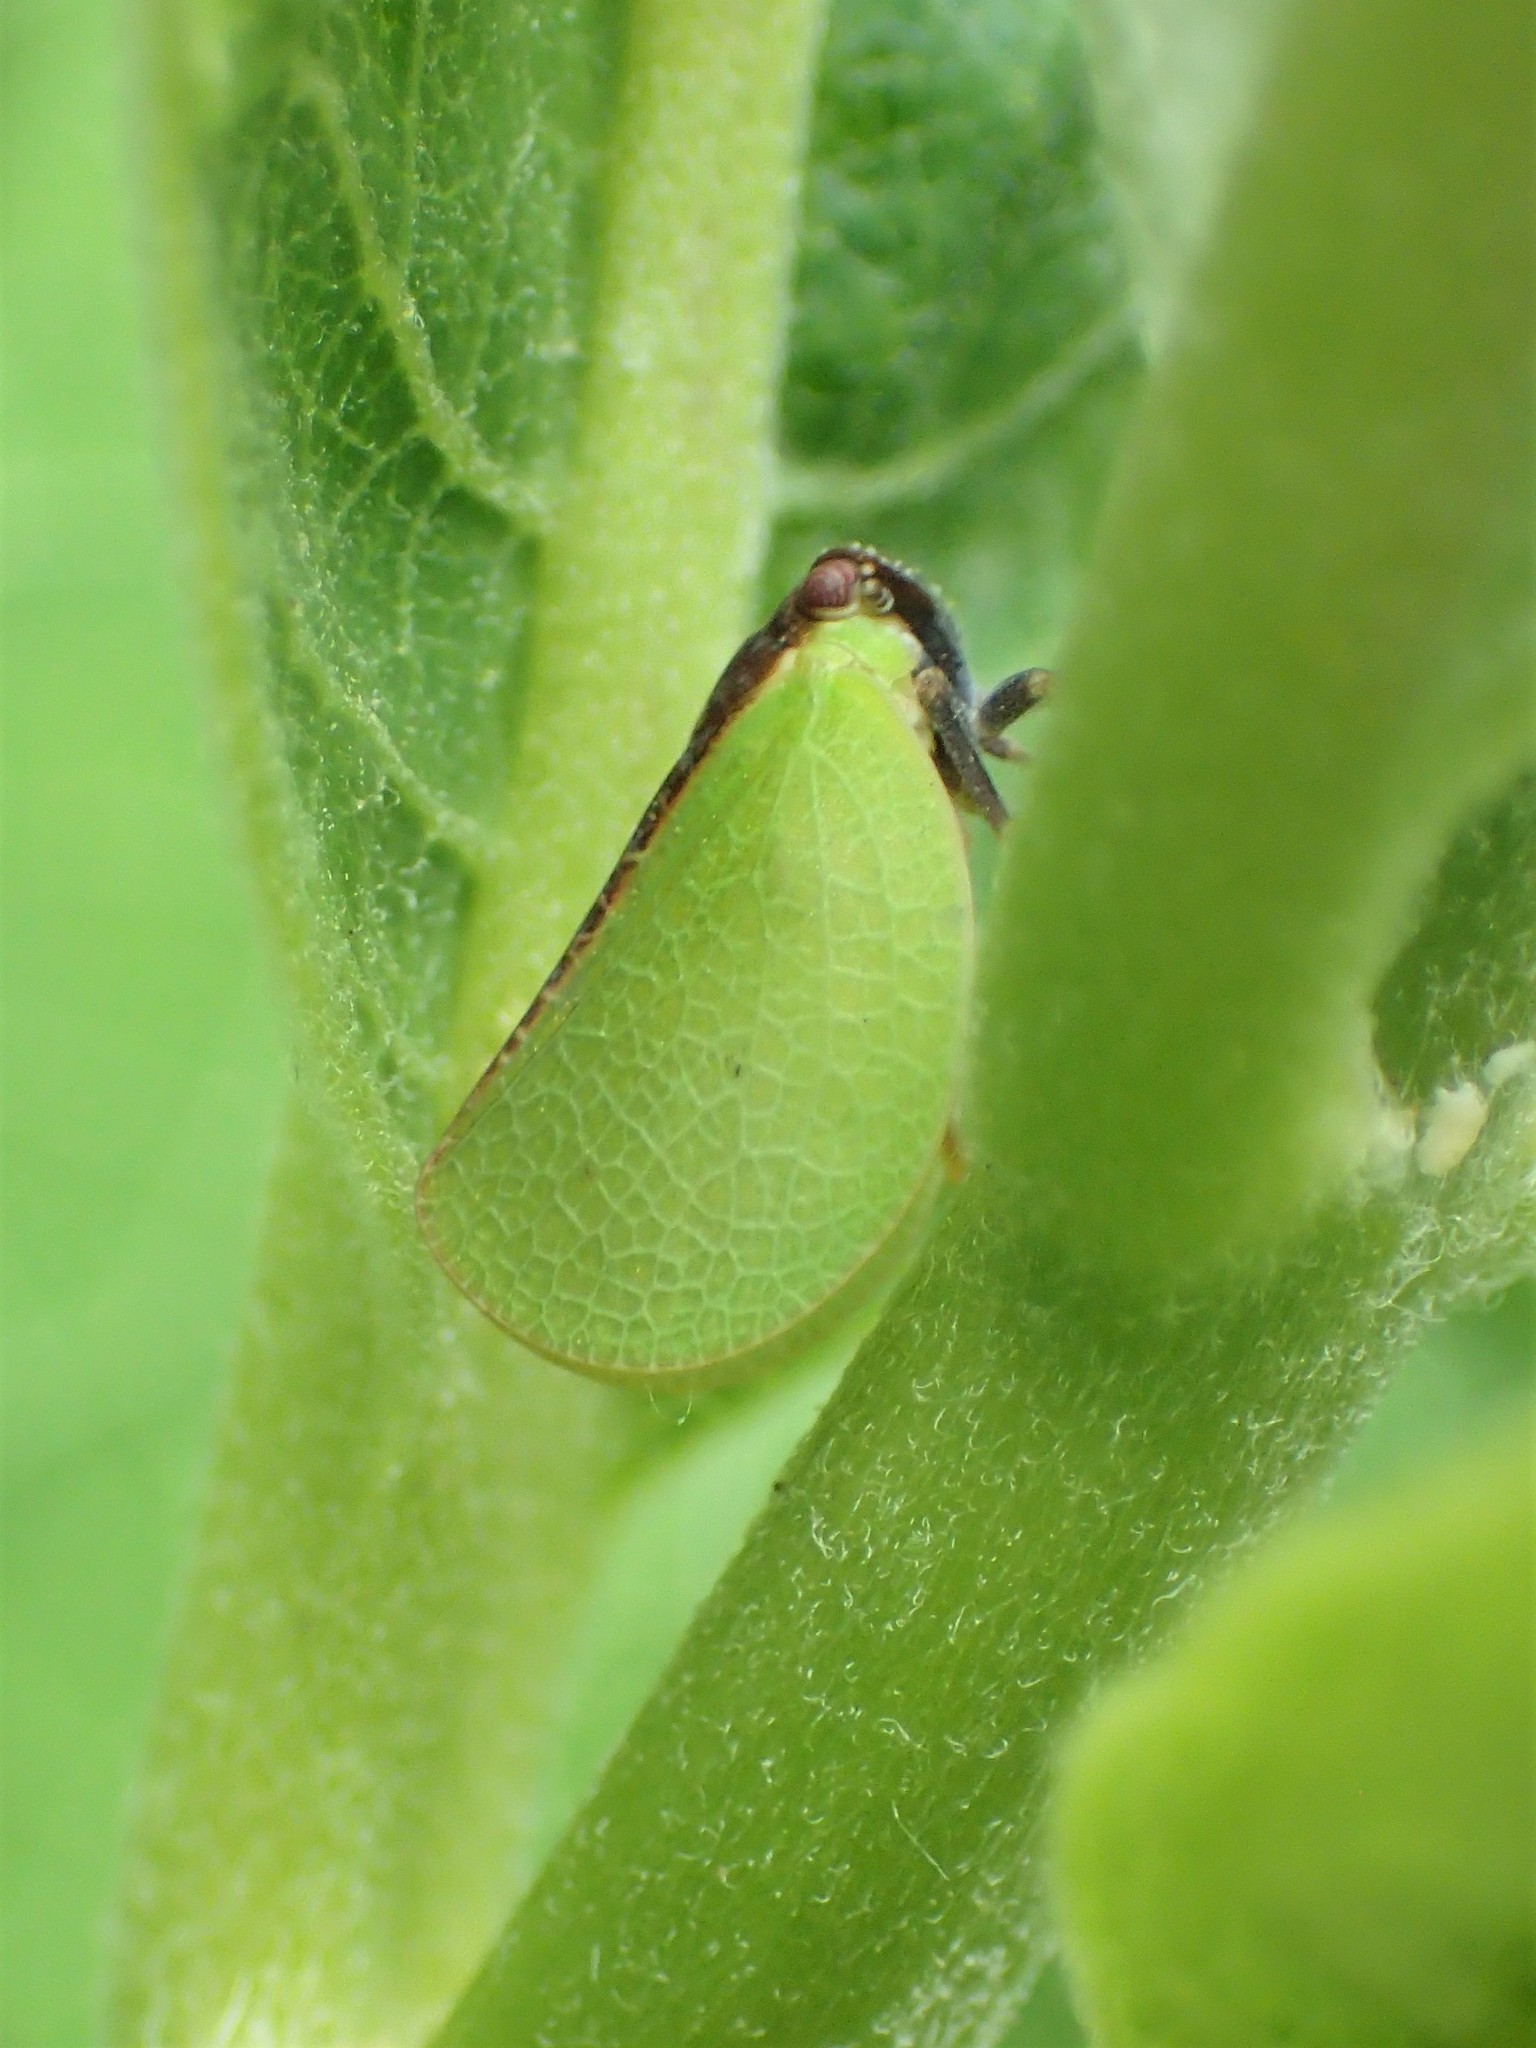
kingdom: Animalia
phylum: Arthropoda
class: Insecta
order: Hemiptera
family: Acanaloniidae
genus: Acanalonia
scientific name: Acanalonia bivittata
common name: Two-striped planthopper
